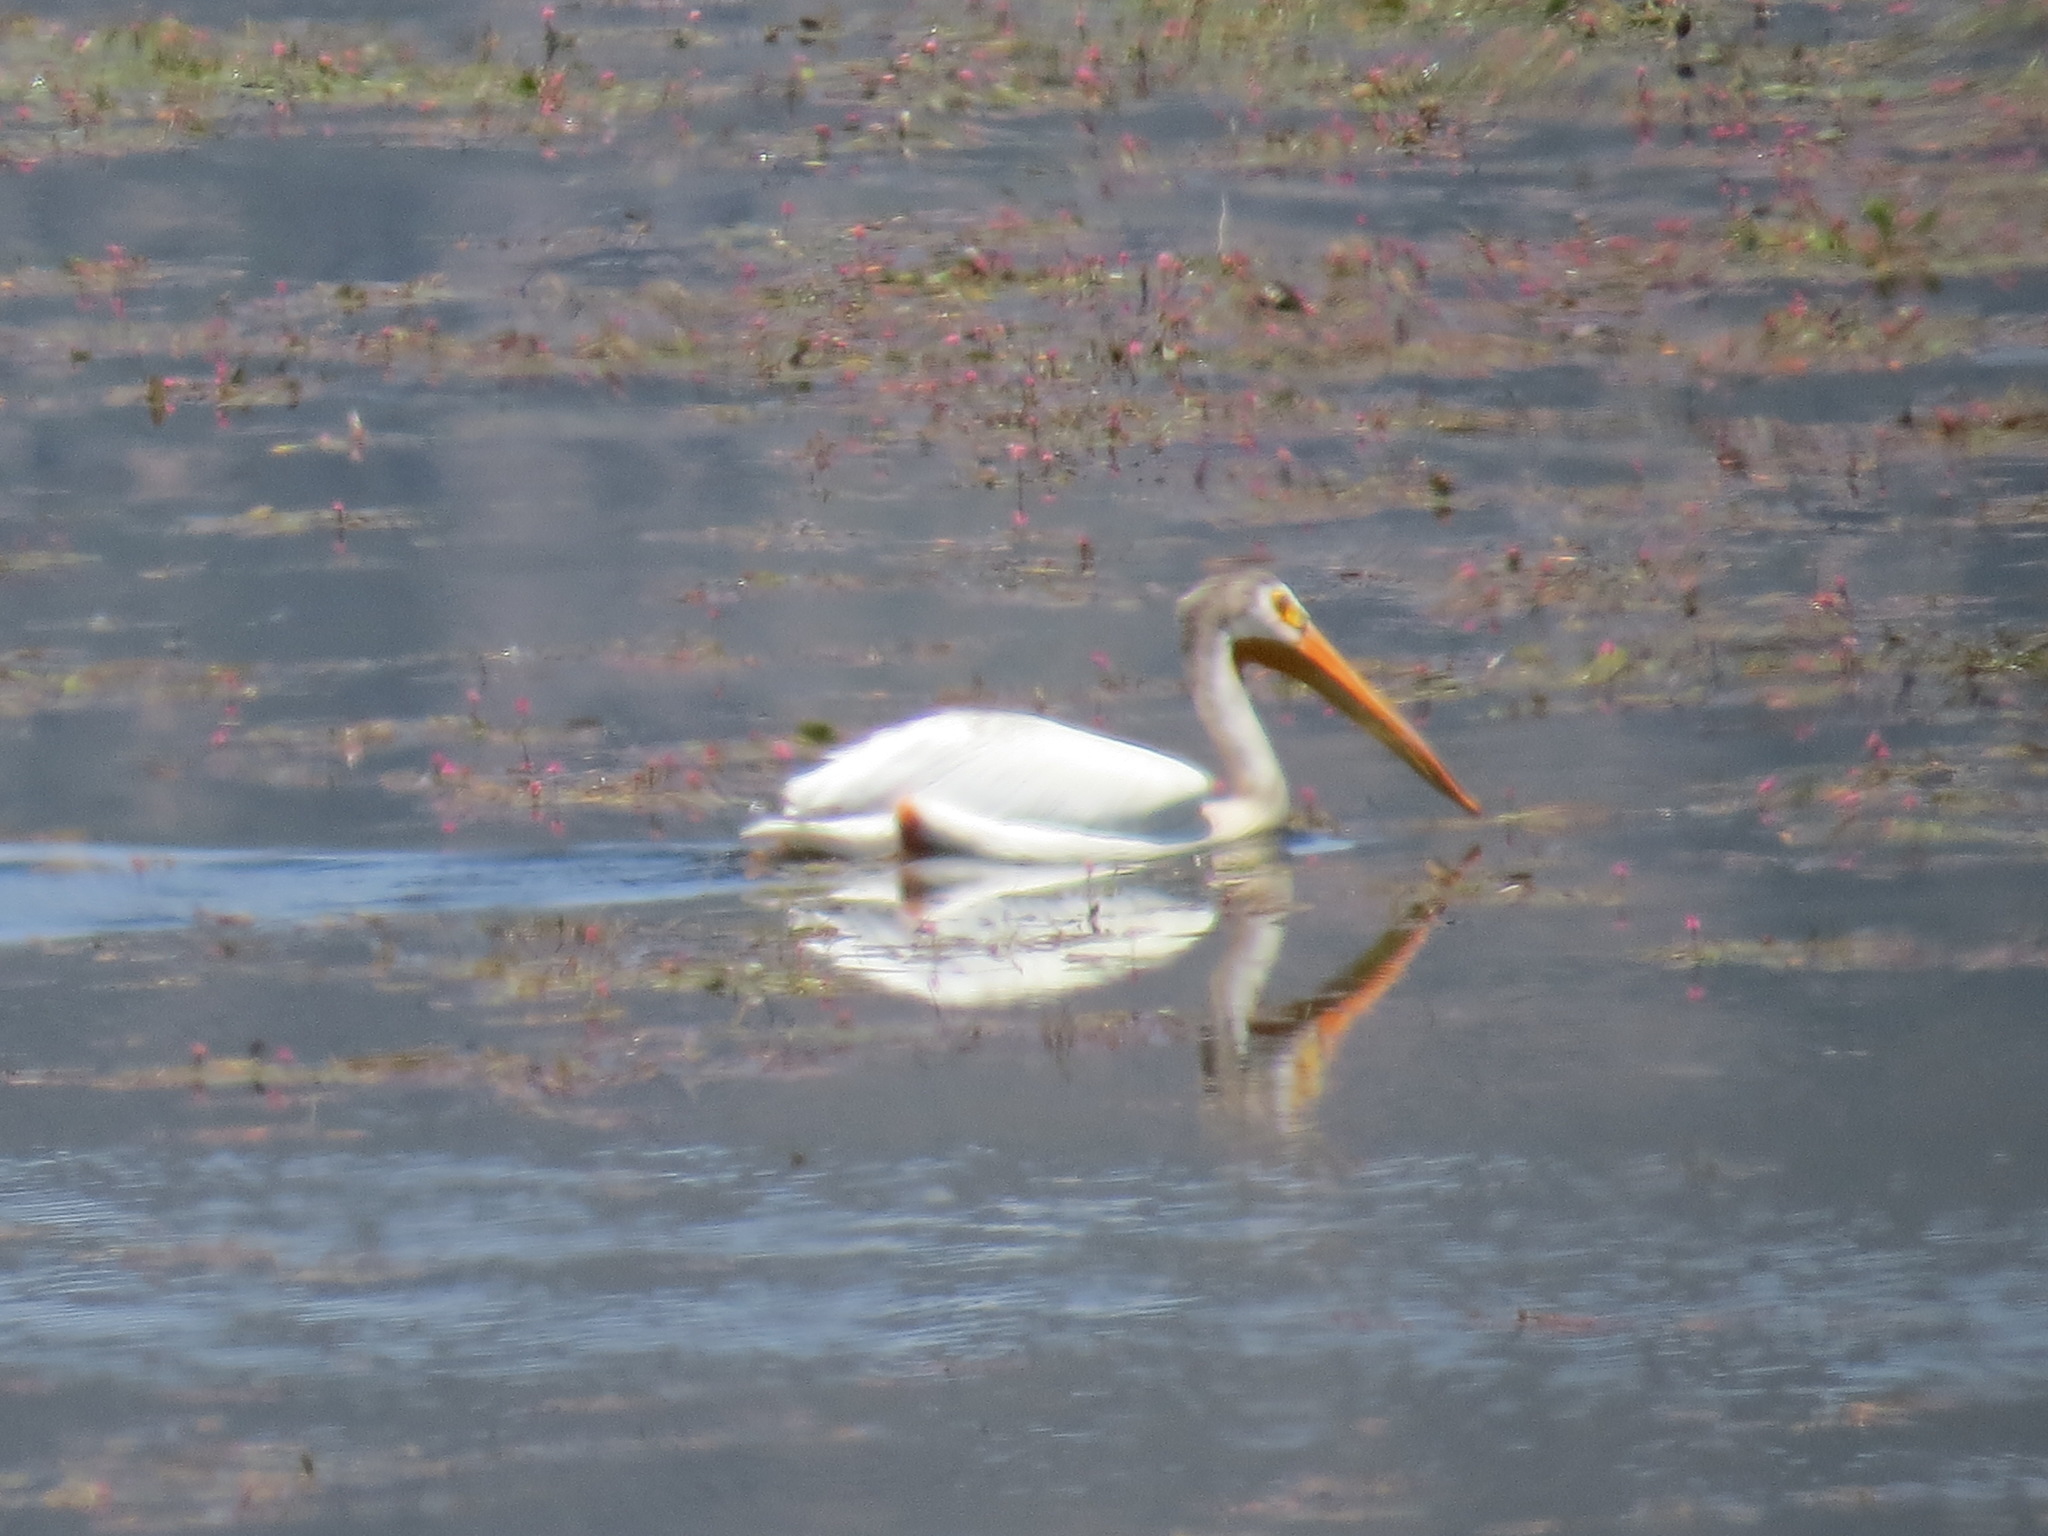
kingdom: Animalia
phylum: Chordata
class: Aves
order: Pelecaniformes
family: Pelecanidae
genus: Pelecanus
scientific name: Pelecanus erythrorhynchos
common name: American white pelican
